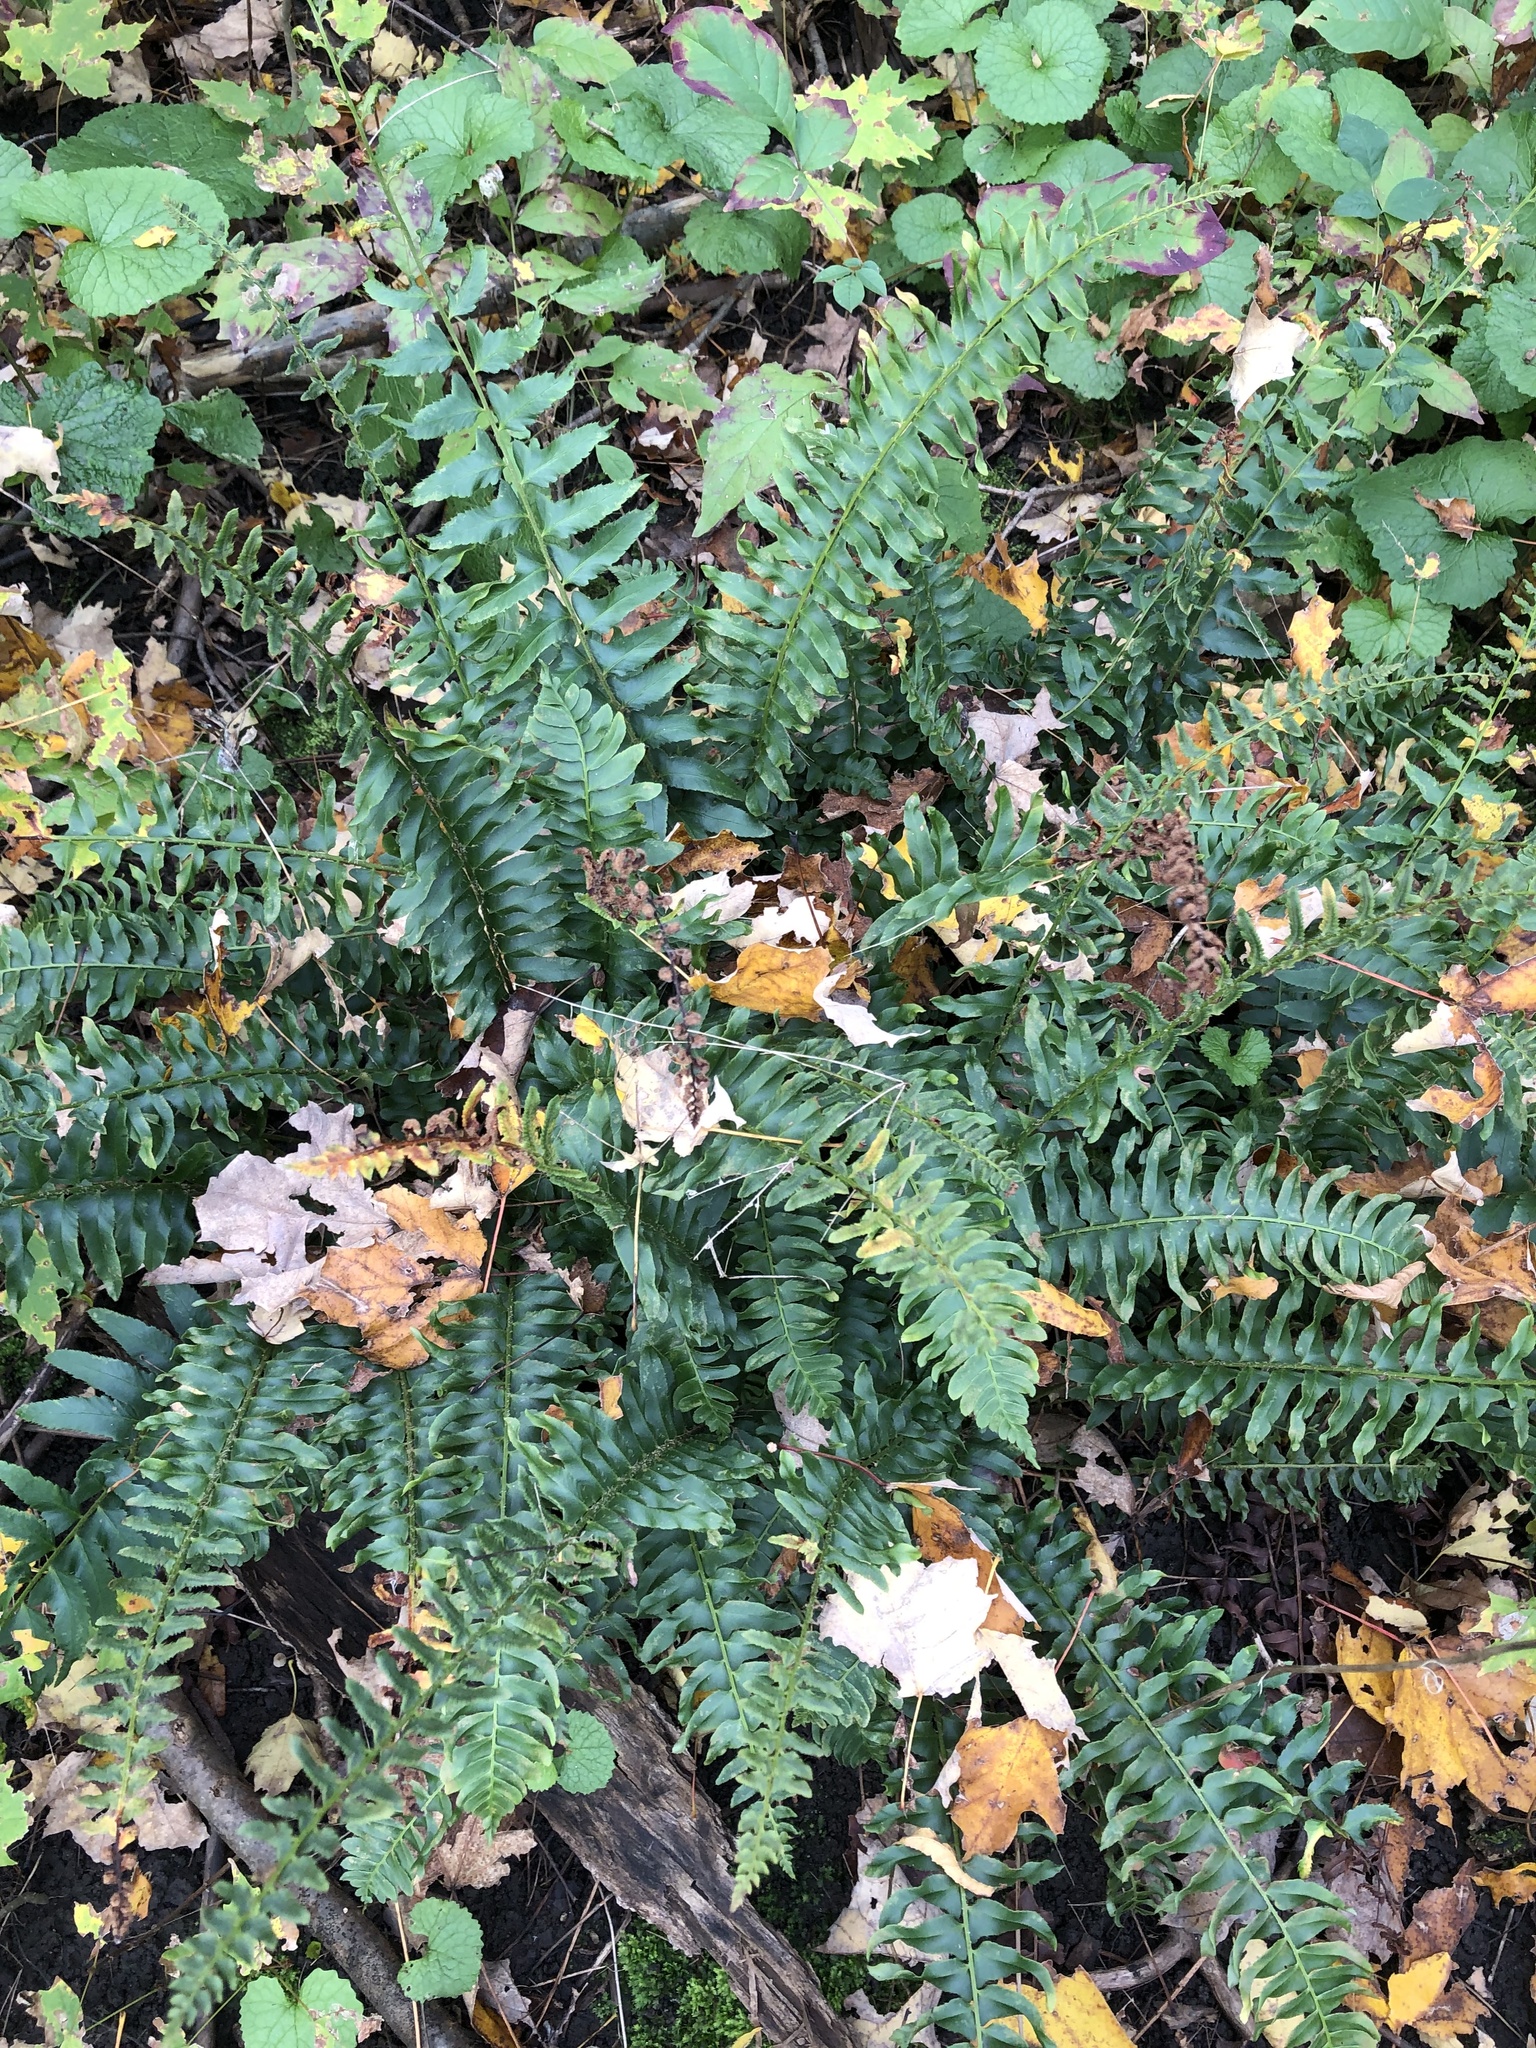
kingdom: Plantae
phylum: Tracheophyta
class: Polypodiopsida
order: Polypodiales
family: Dryopteridaceae
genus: Polystichum
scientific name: Polystichum acrostichoides
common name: Christmas fern
